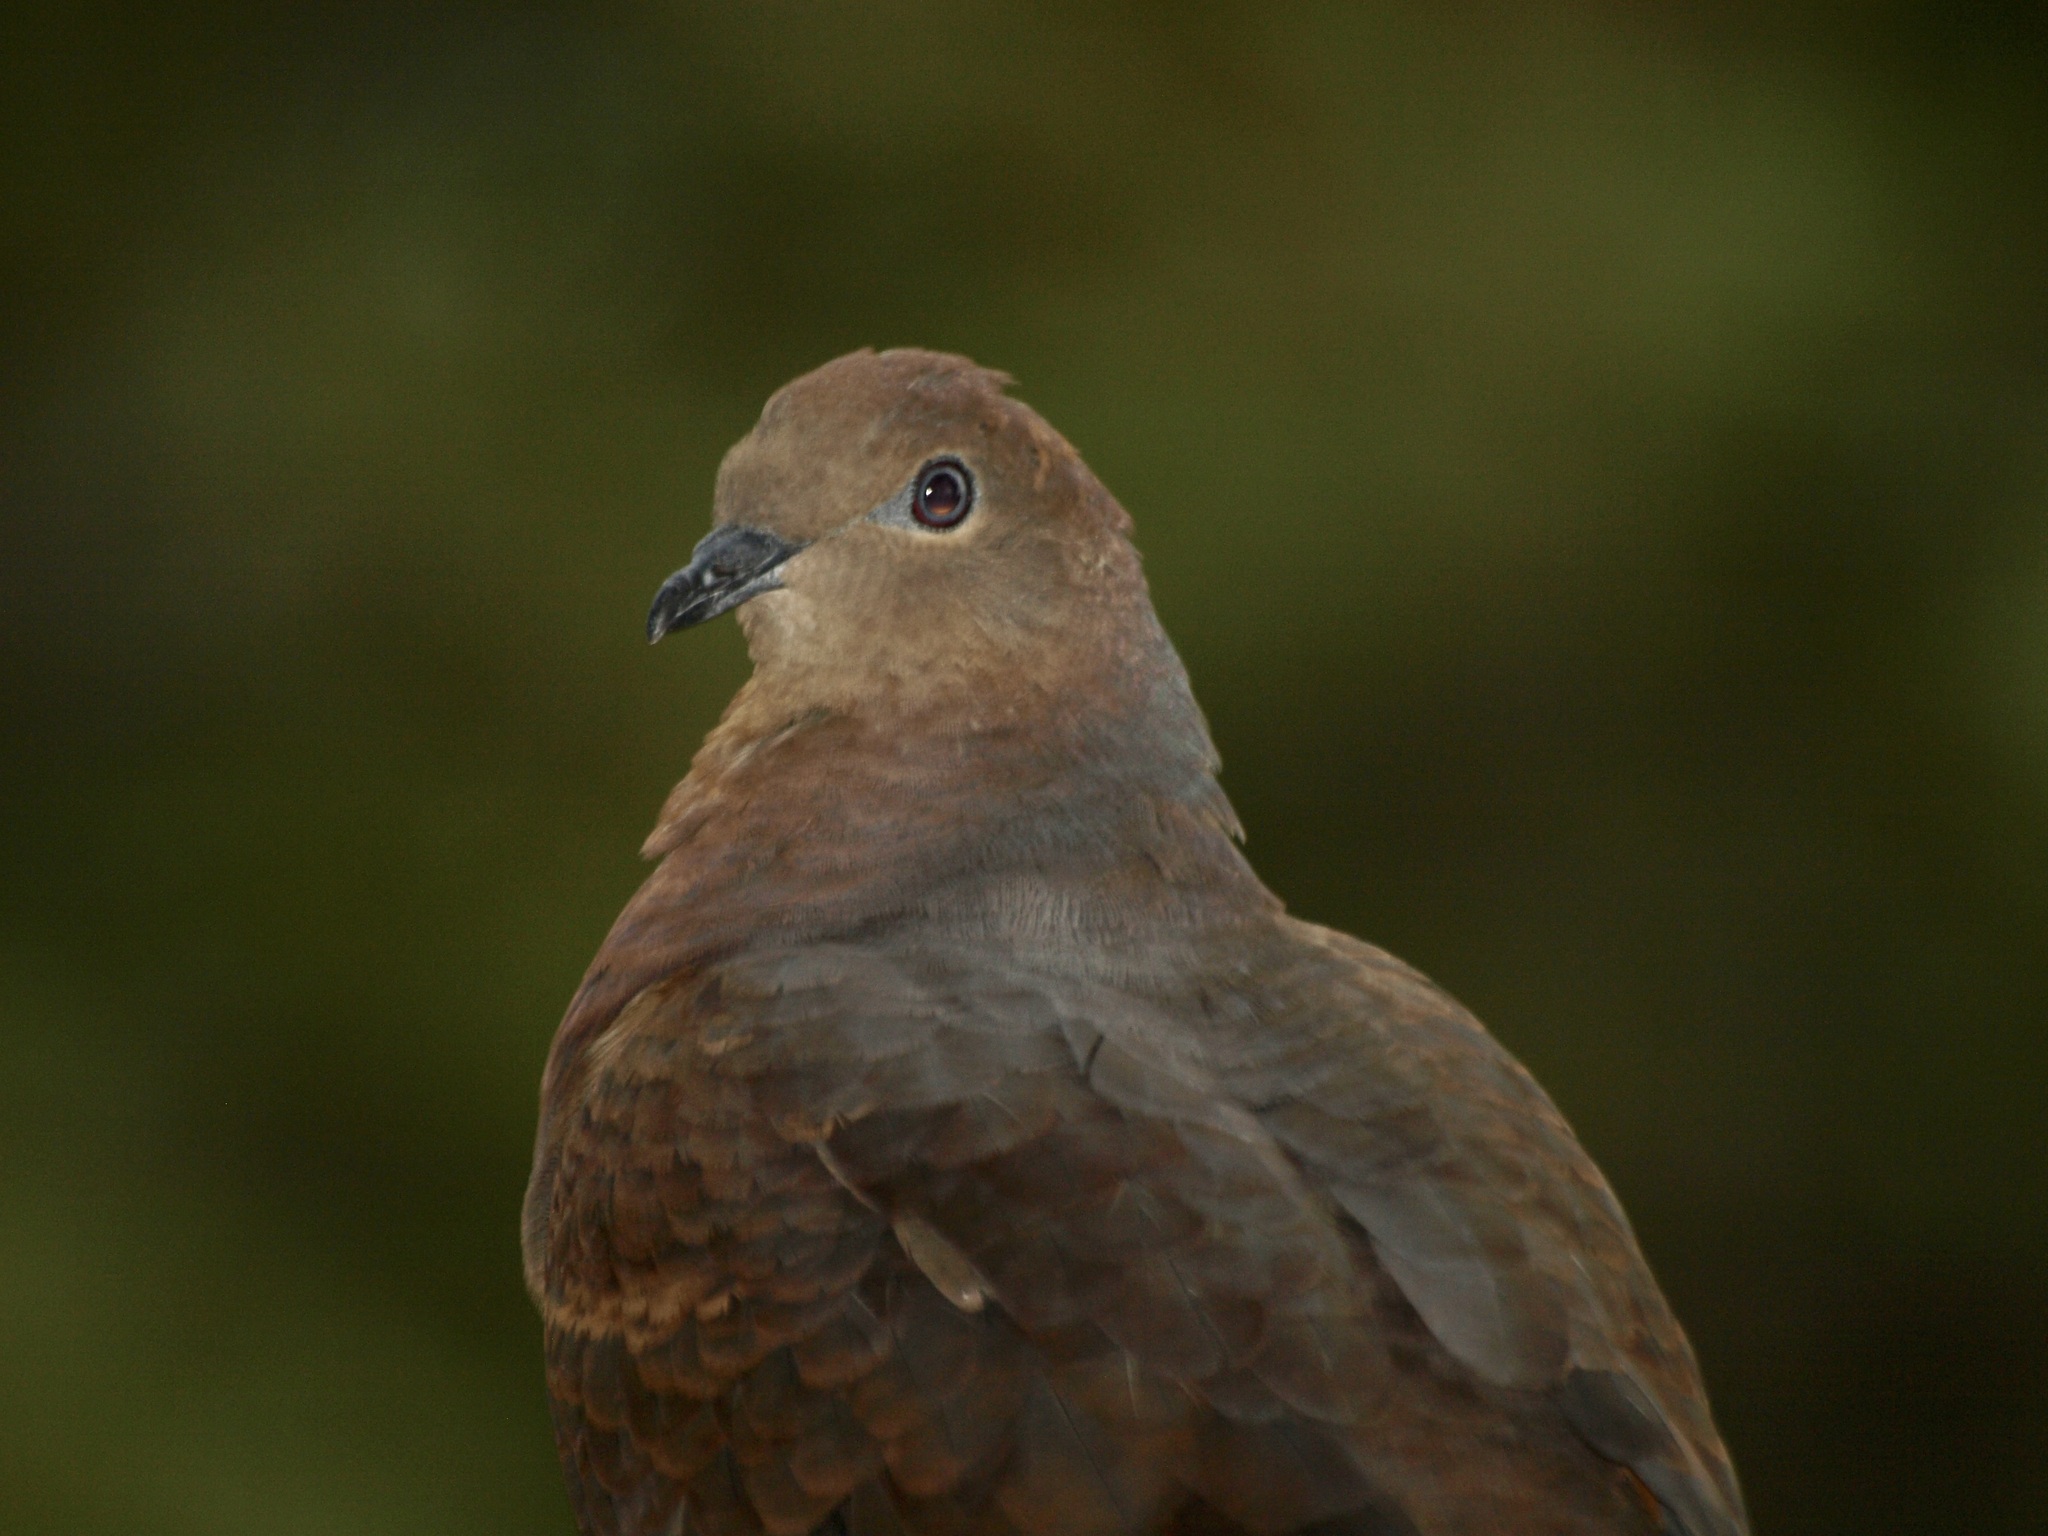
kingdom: Animalia
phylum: Chordata
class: Aves
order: Columbiformes
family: Columbidae
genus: Macropygia
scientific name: Macropygia phasianella
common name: Brown cuckoo-dove
